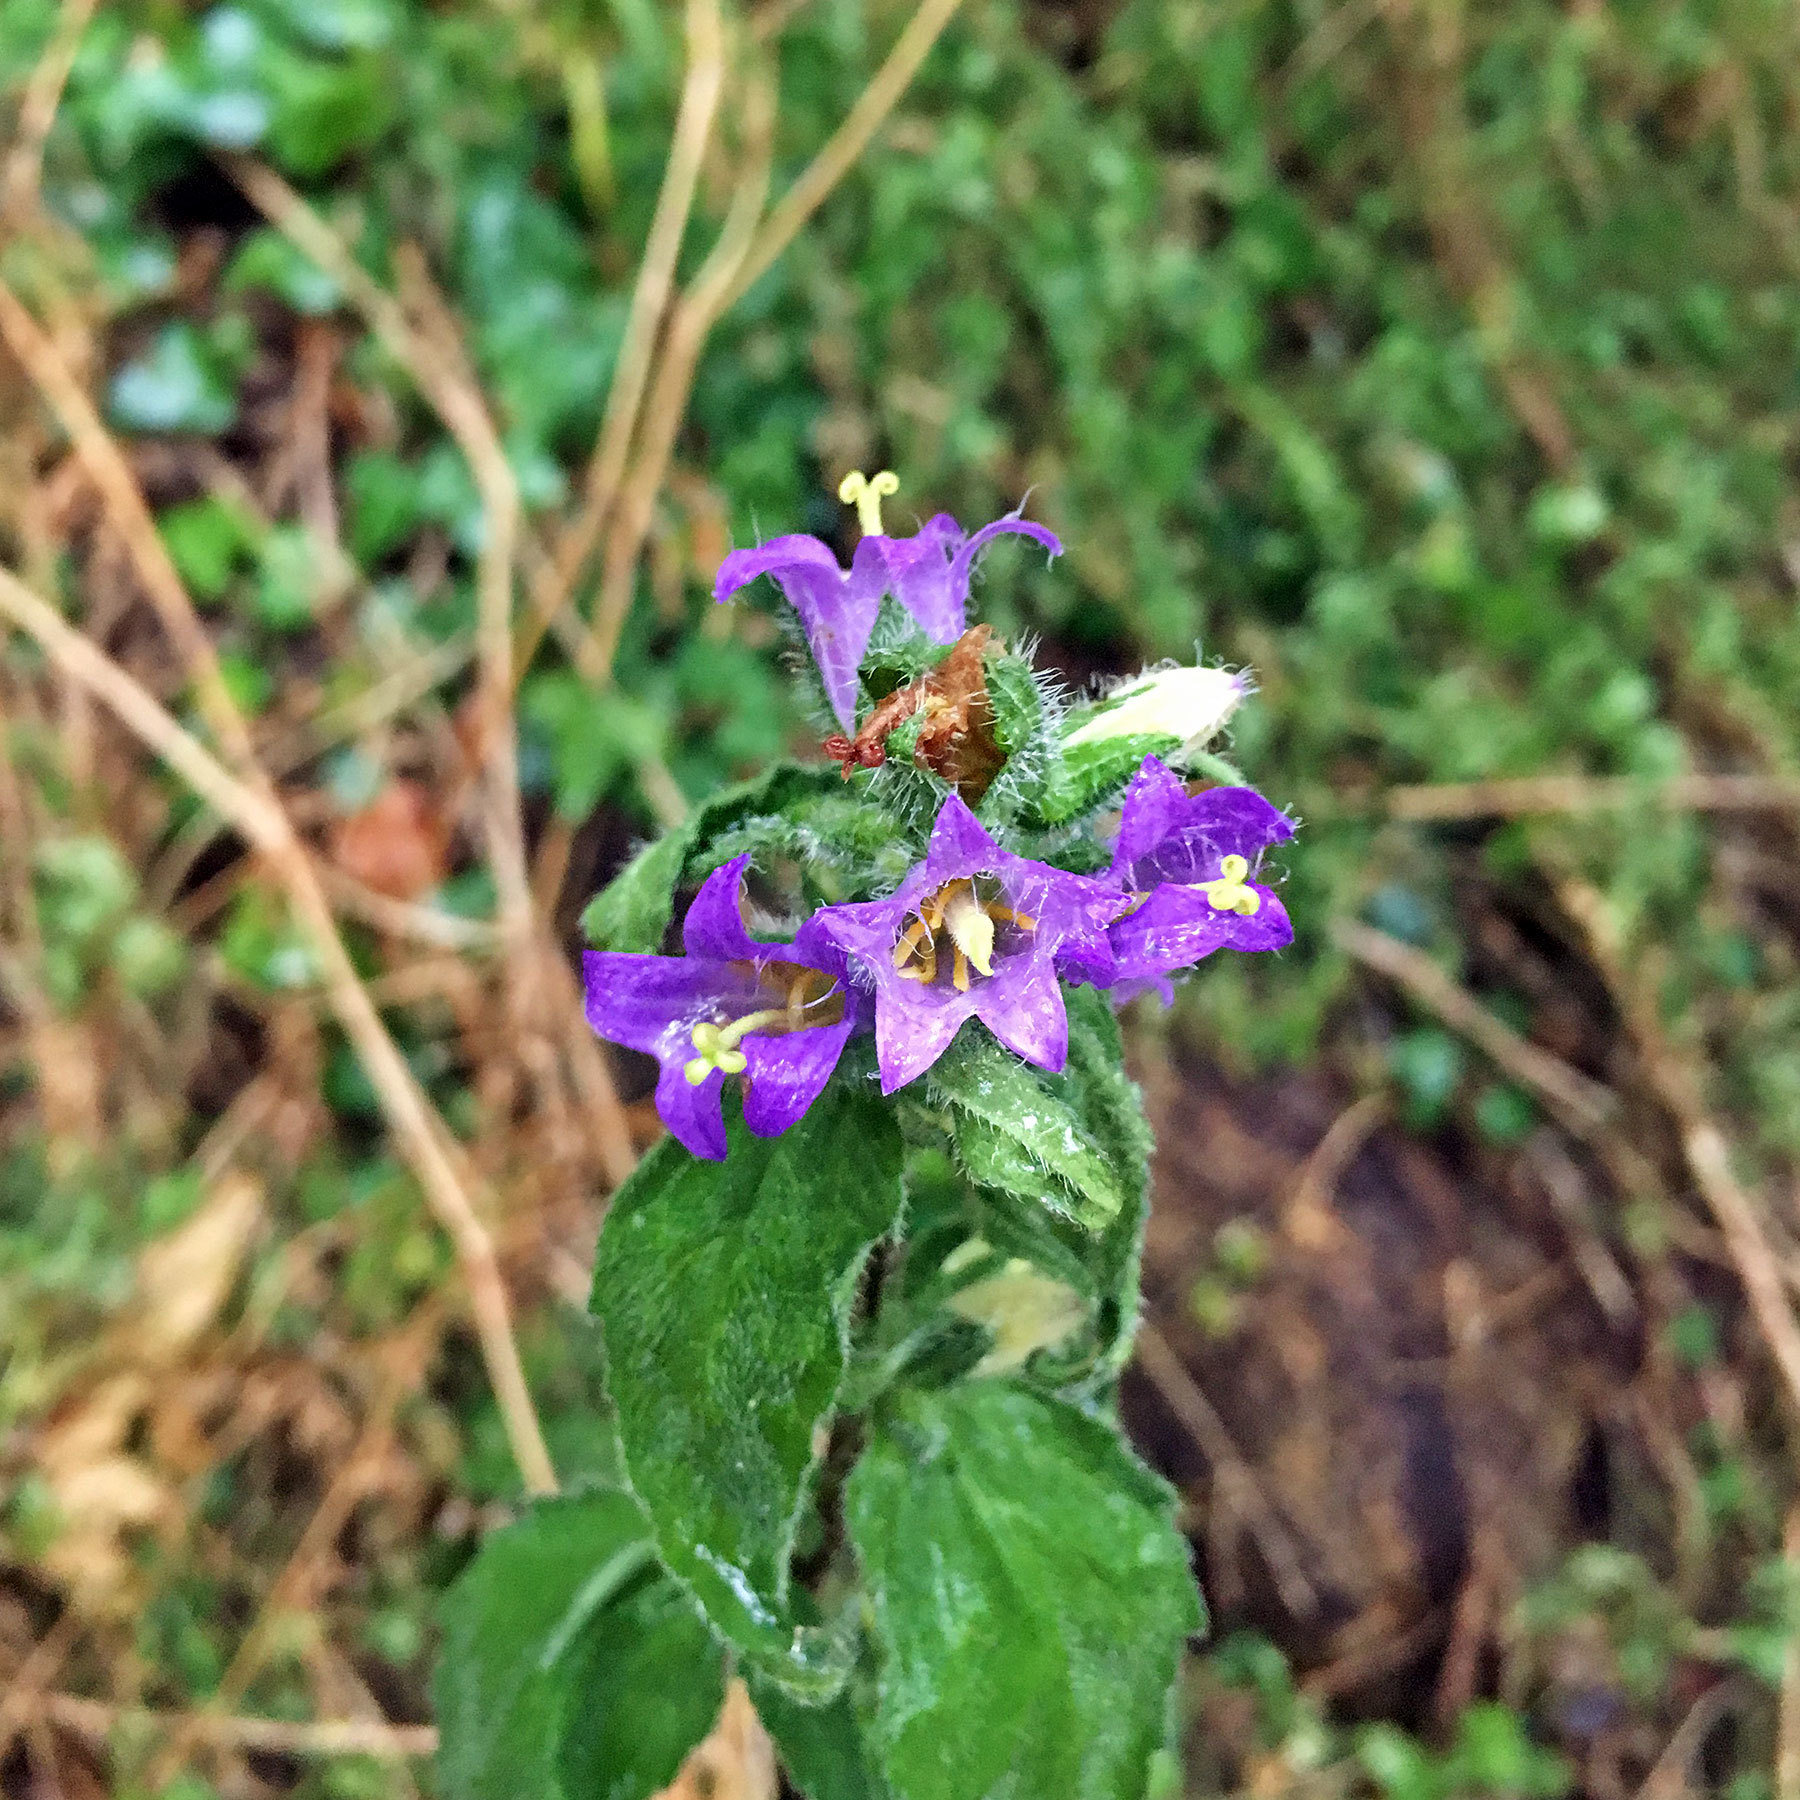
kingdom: Plantae
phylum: Tracheophyta
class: Magnoliopsida
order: Asterales
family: Campanulaceae
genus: Campanula
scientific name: Campanula trachelium
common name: Nettle-leaved bellflower
